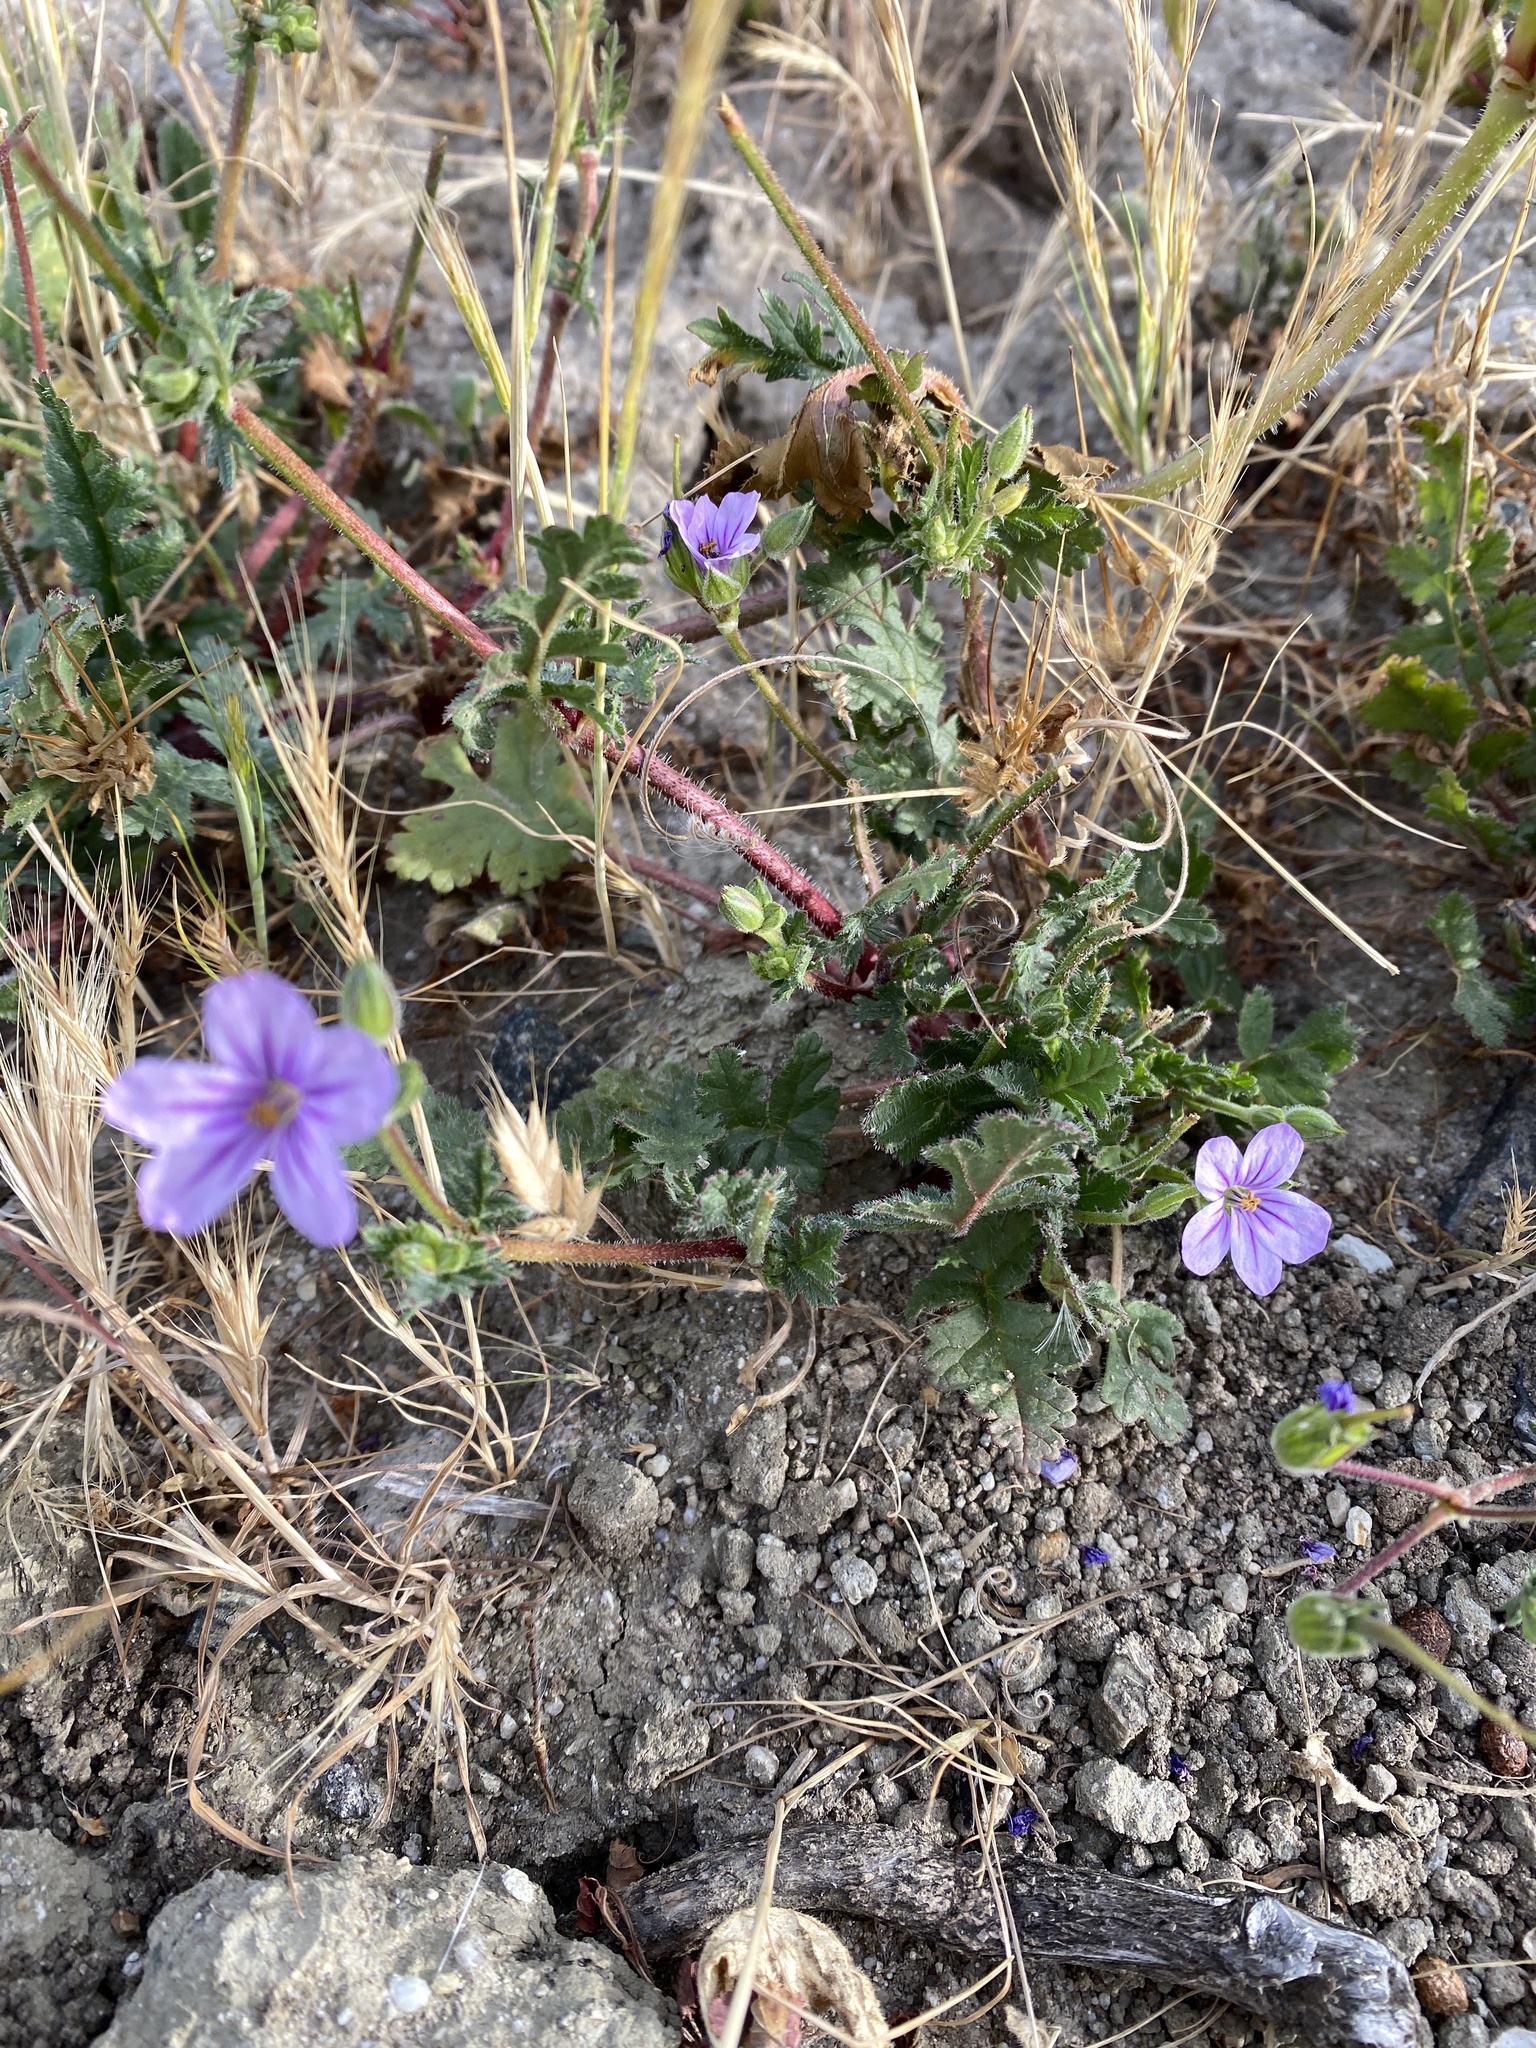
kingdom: Plantae
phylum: Tracheophyta
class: Magnoliopsida
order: Geraniales
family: Geraniaceae
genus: Erodium
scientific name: Erodium botrys
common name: Mediterranean stork's-bill
